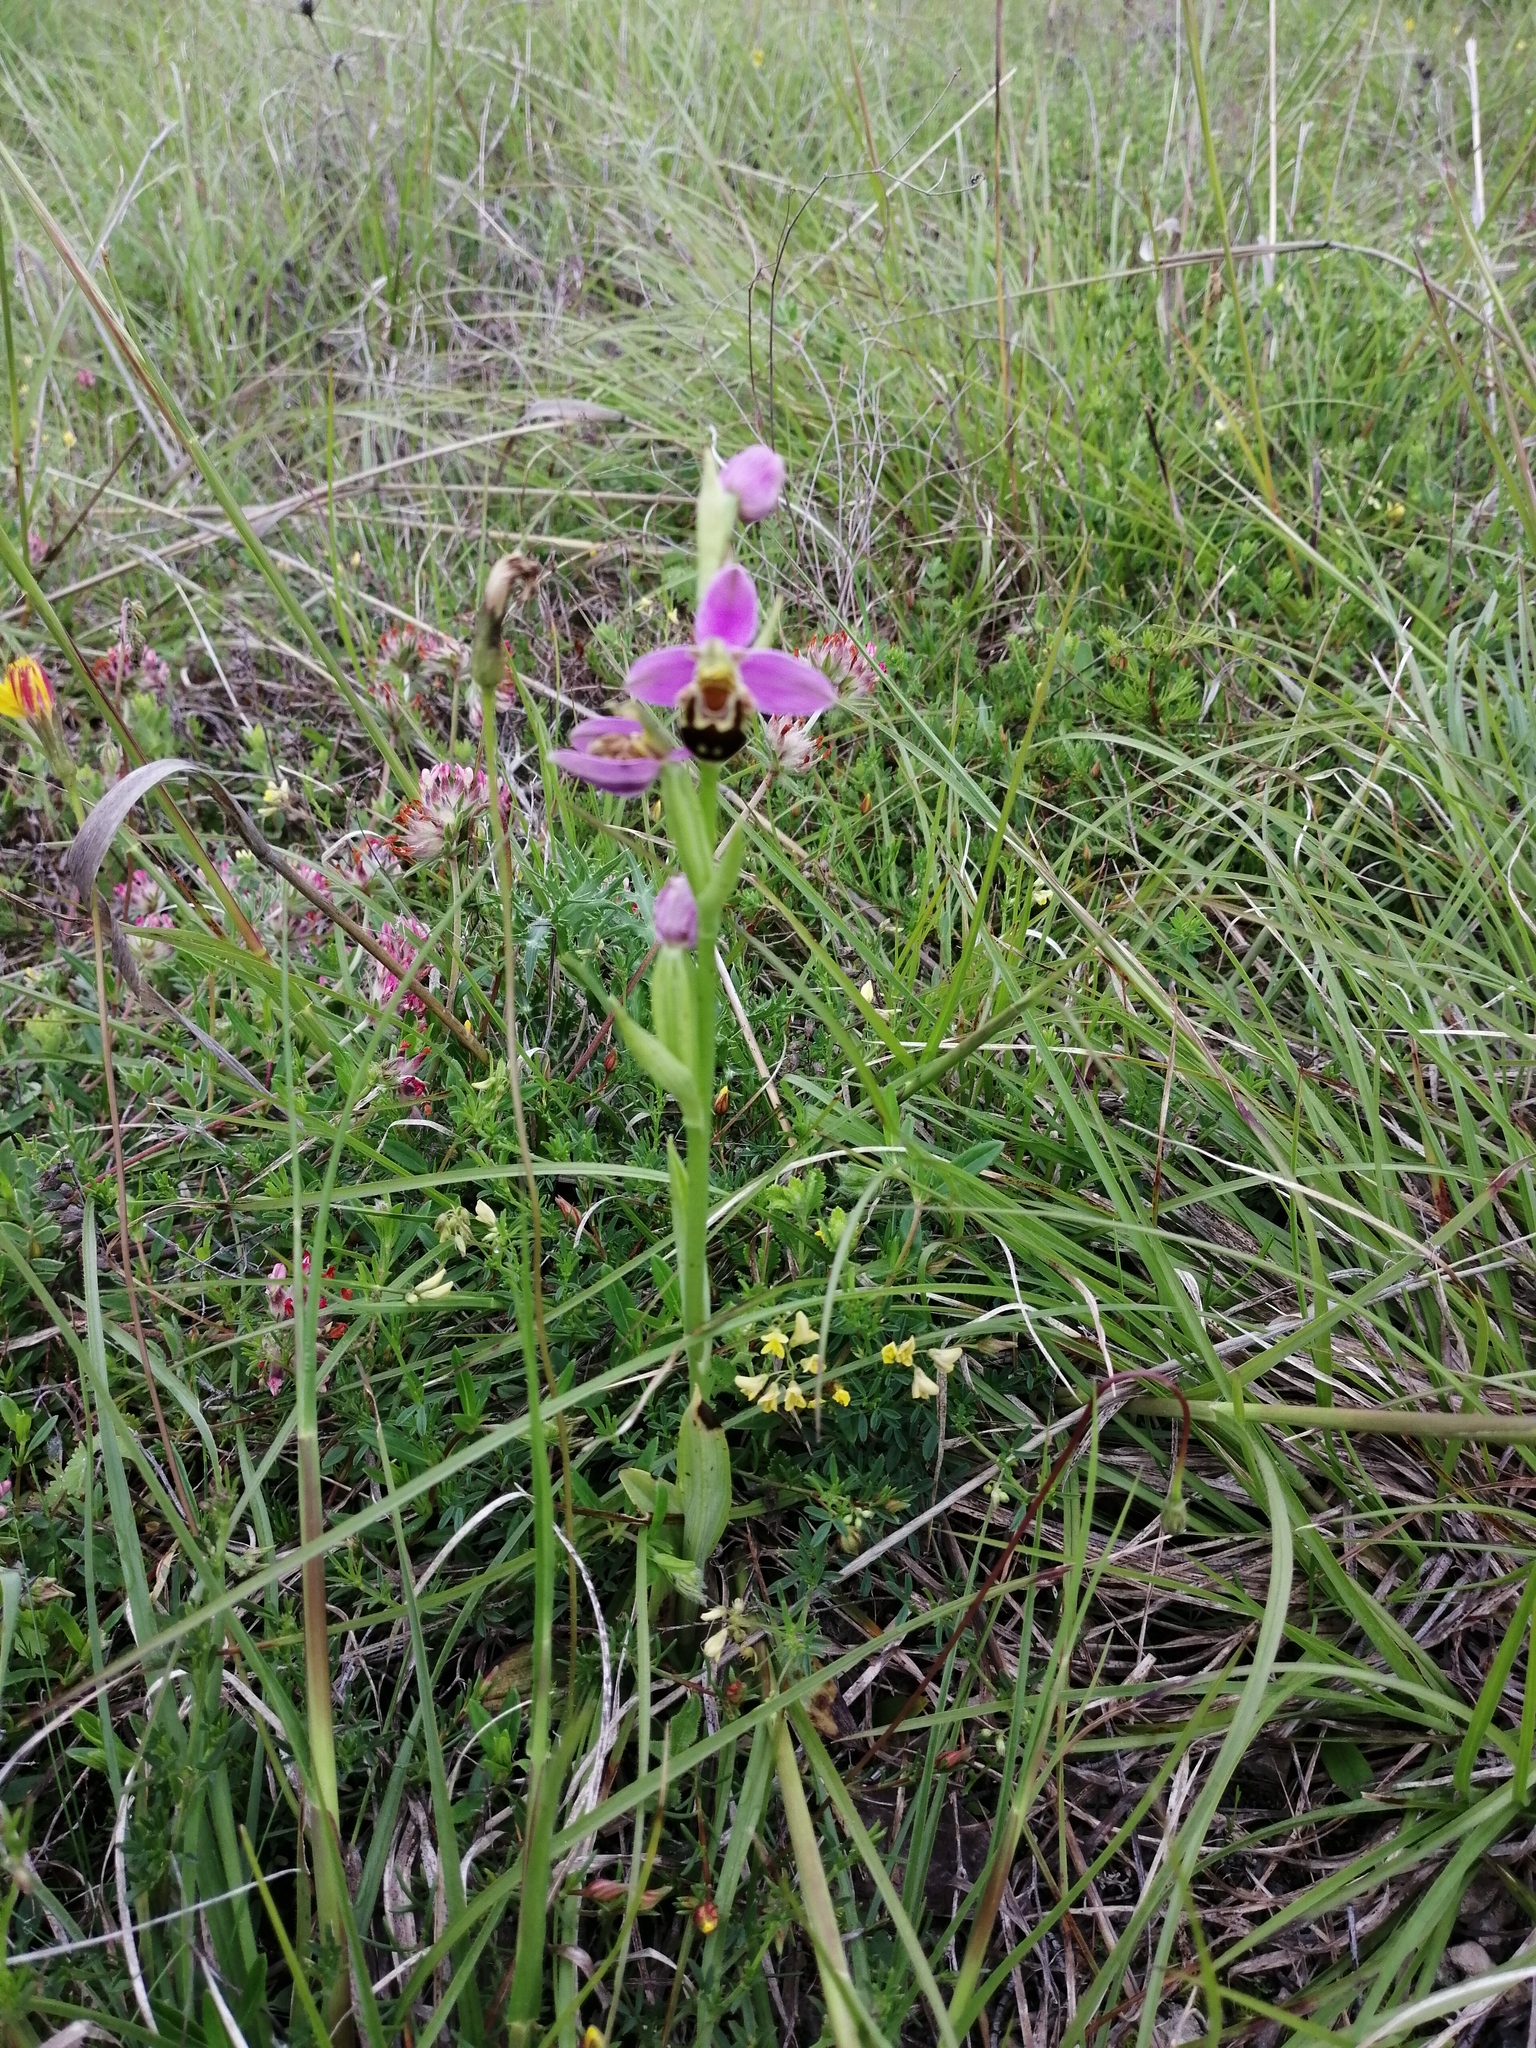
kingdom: Plantae
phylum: Tracheophyta
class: Liliopsida
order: Asparagales
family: Orchidaceae
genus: Ophrys
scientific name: Ophrys apifera
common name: Bee orchid
